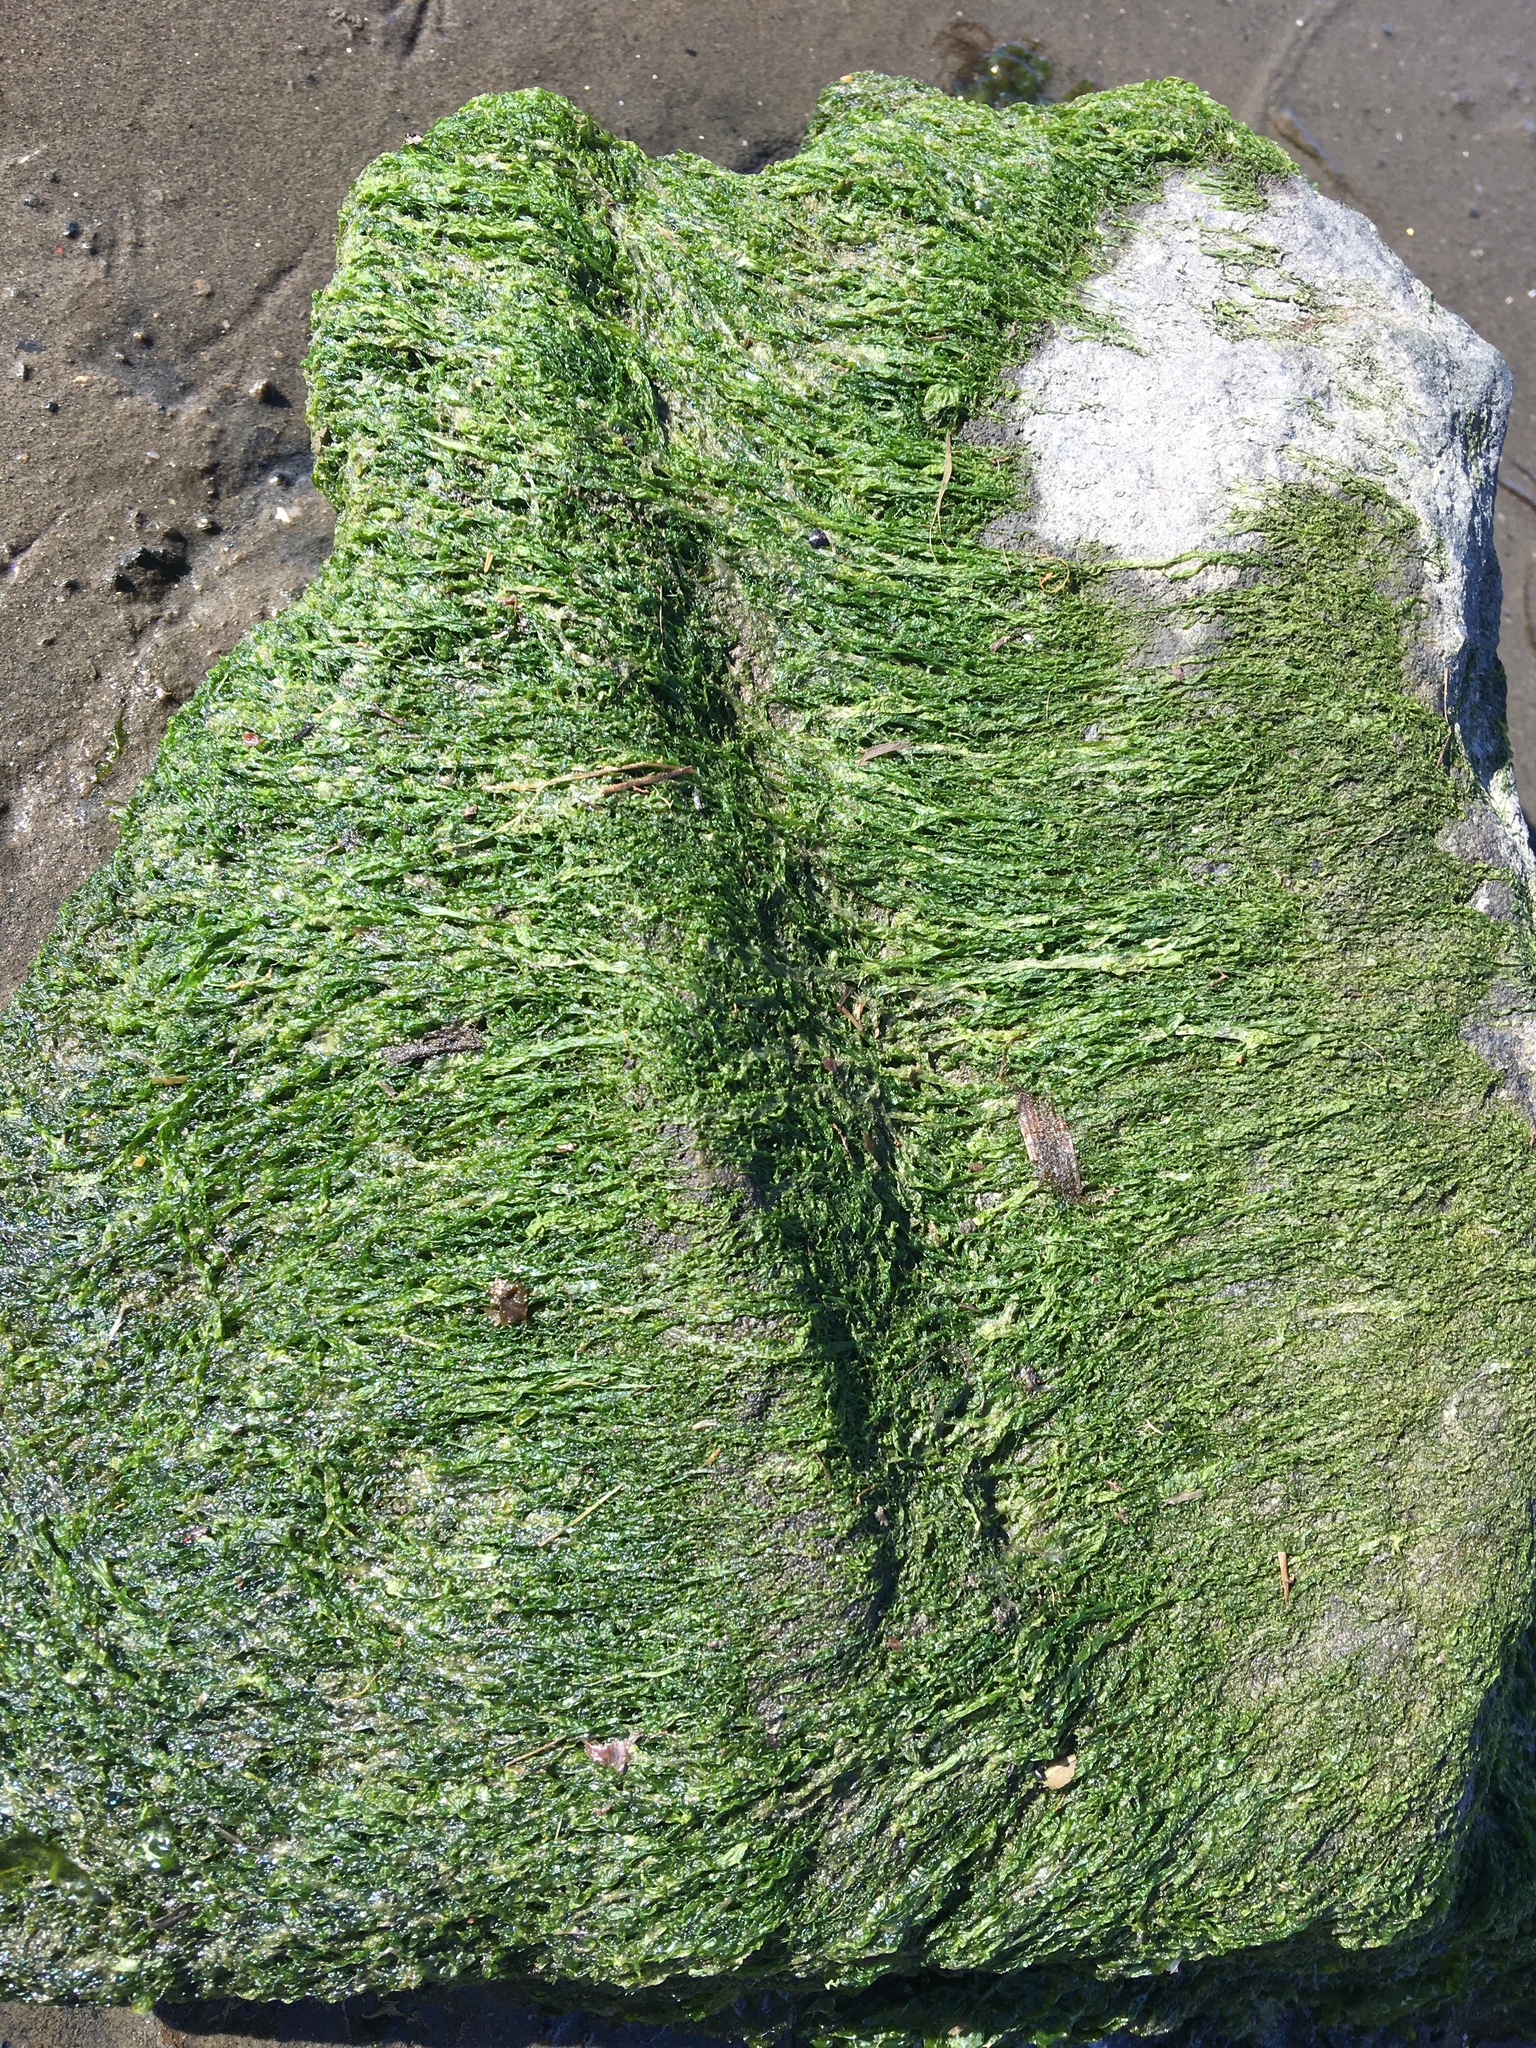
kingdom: Plantae
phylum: Chlorophyta
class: Ulvophyceae
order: Ulvales
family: Ulvaceae
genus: Ulva
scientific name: Ulva intestinalis
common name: Gut weed
